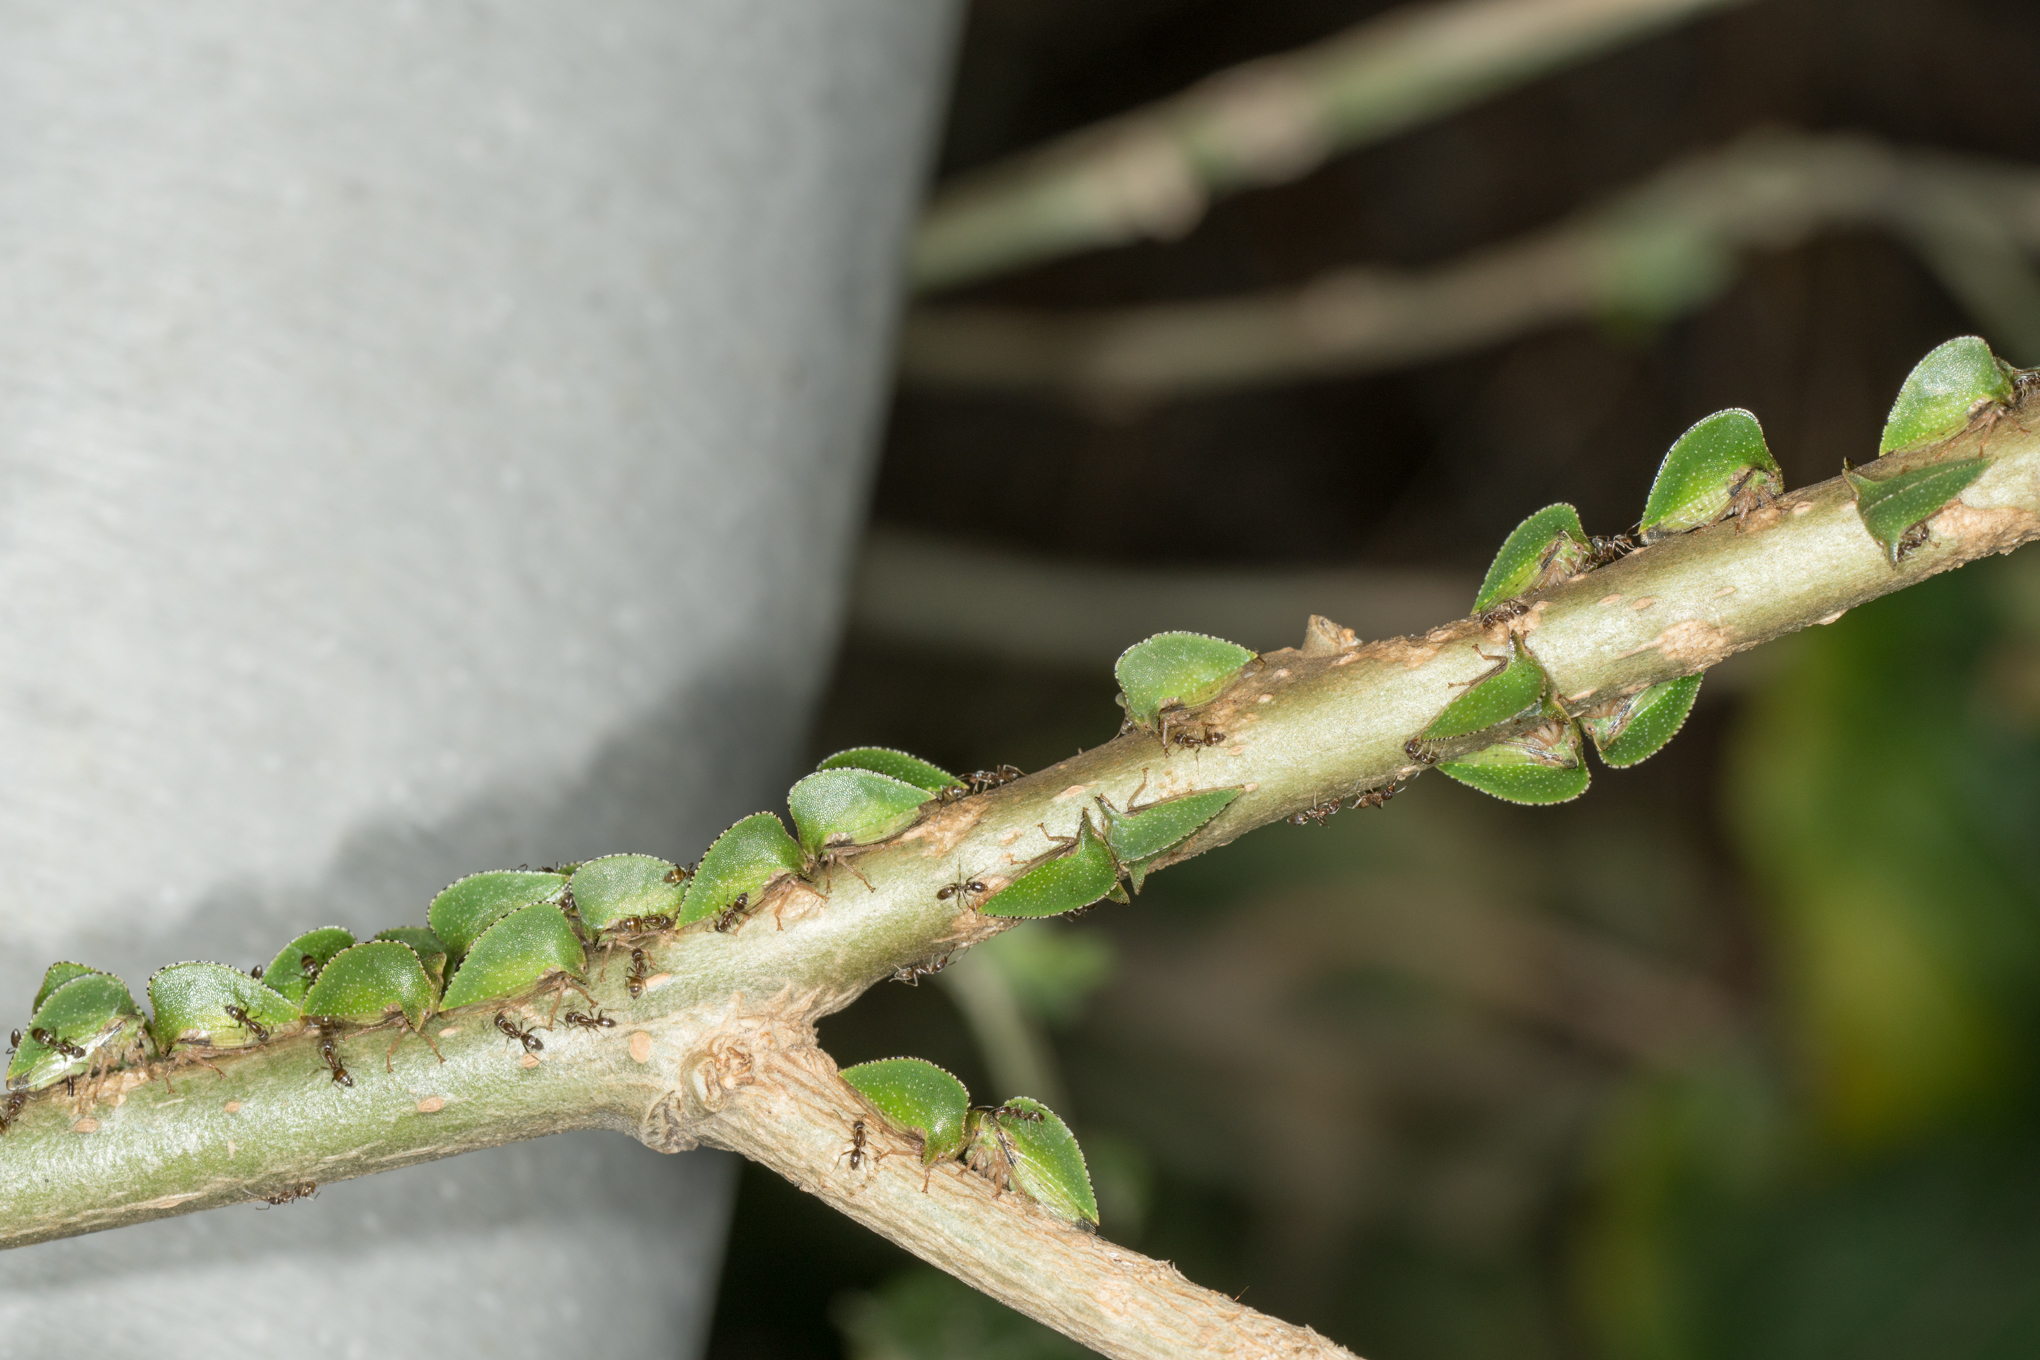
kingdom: Animalia
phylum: Arthropoda
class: Insecta
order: Hemiptera
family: Membracidae
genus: Antianthe
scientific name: Antianthe expansa
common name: Keeled tree hopper
